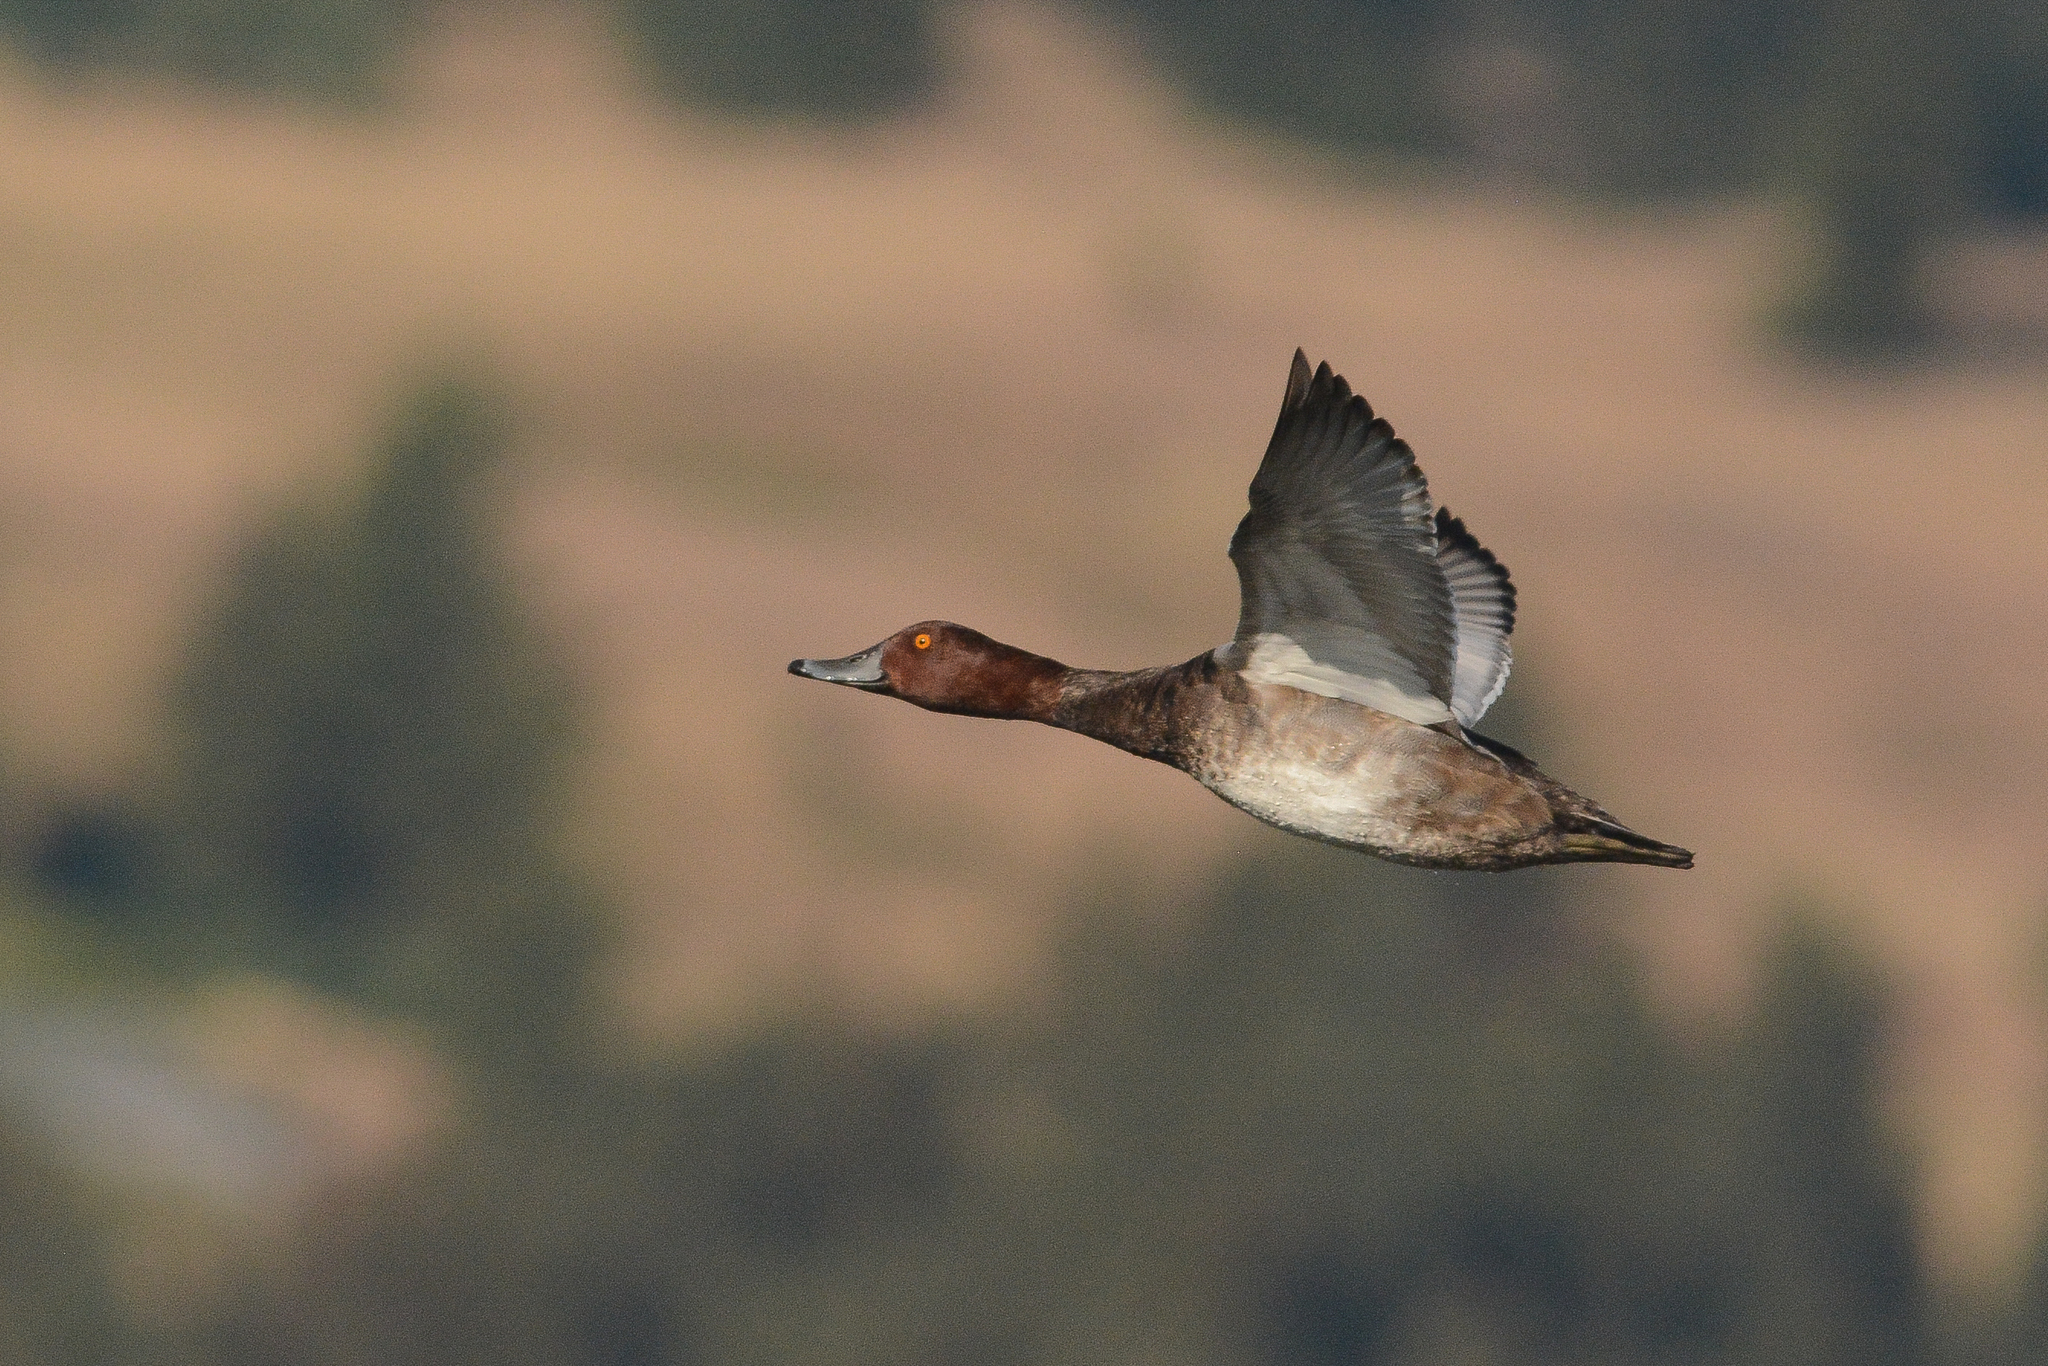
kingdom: Animalia
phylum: Chordata
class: Aves
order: Anseriformes
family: Anatidae
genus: Aythya
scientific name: Aythya americana
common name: Redhead
